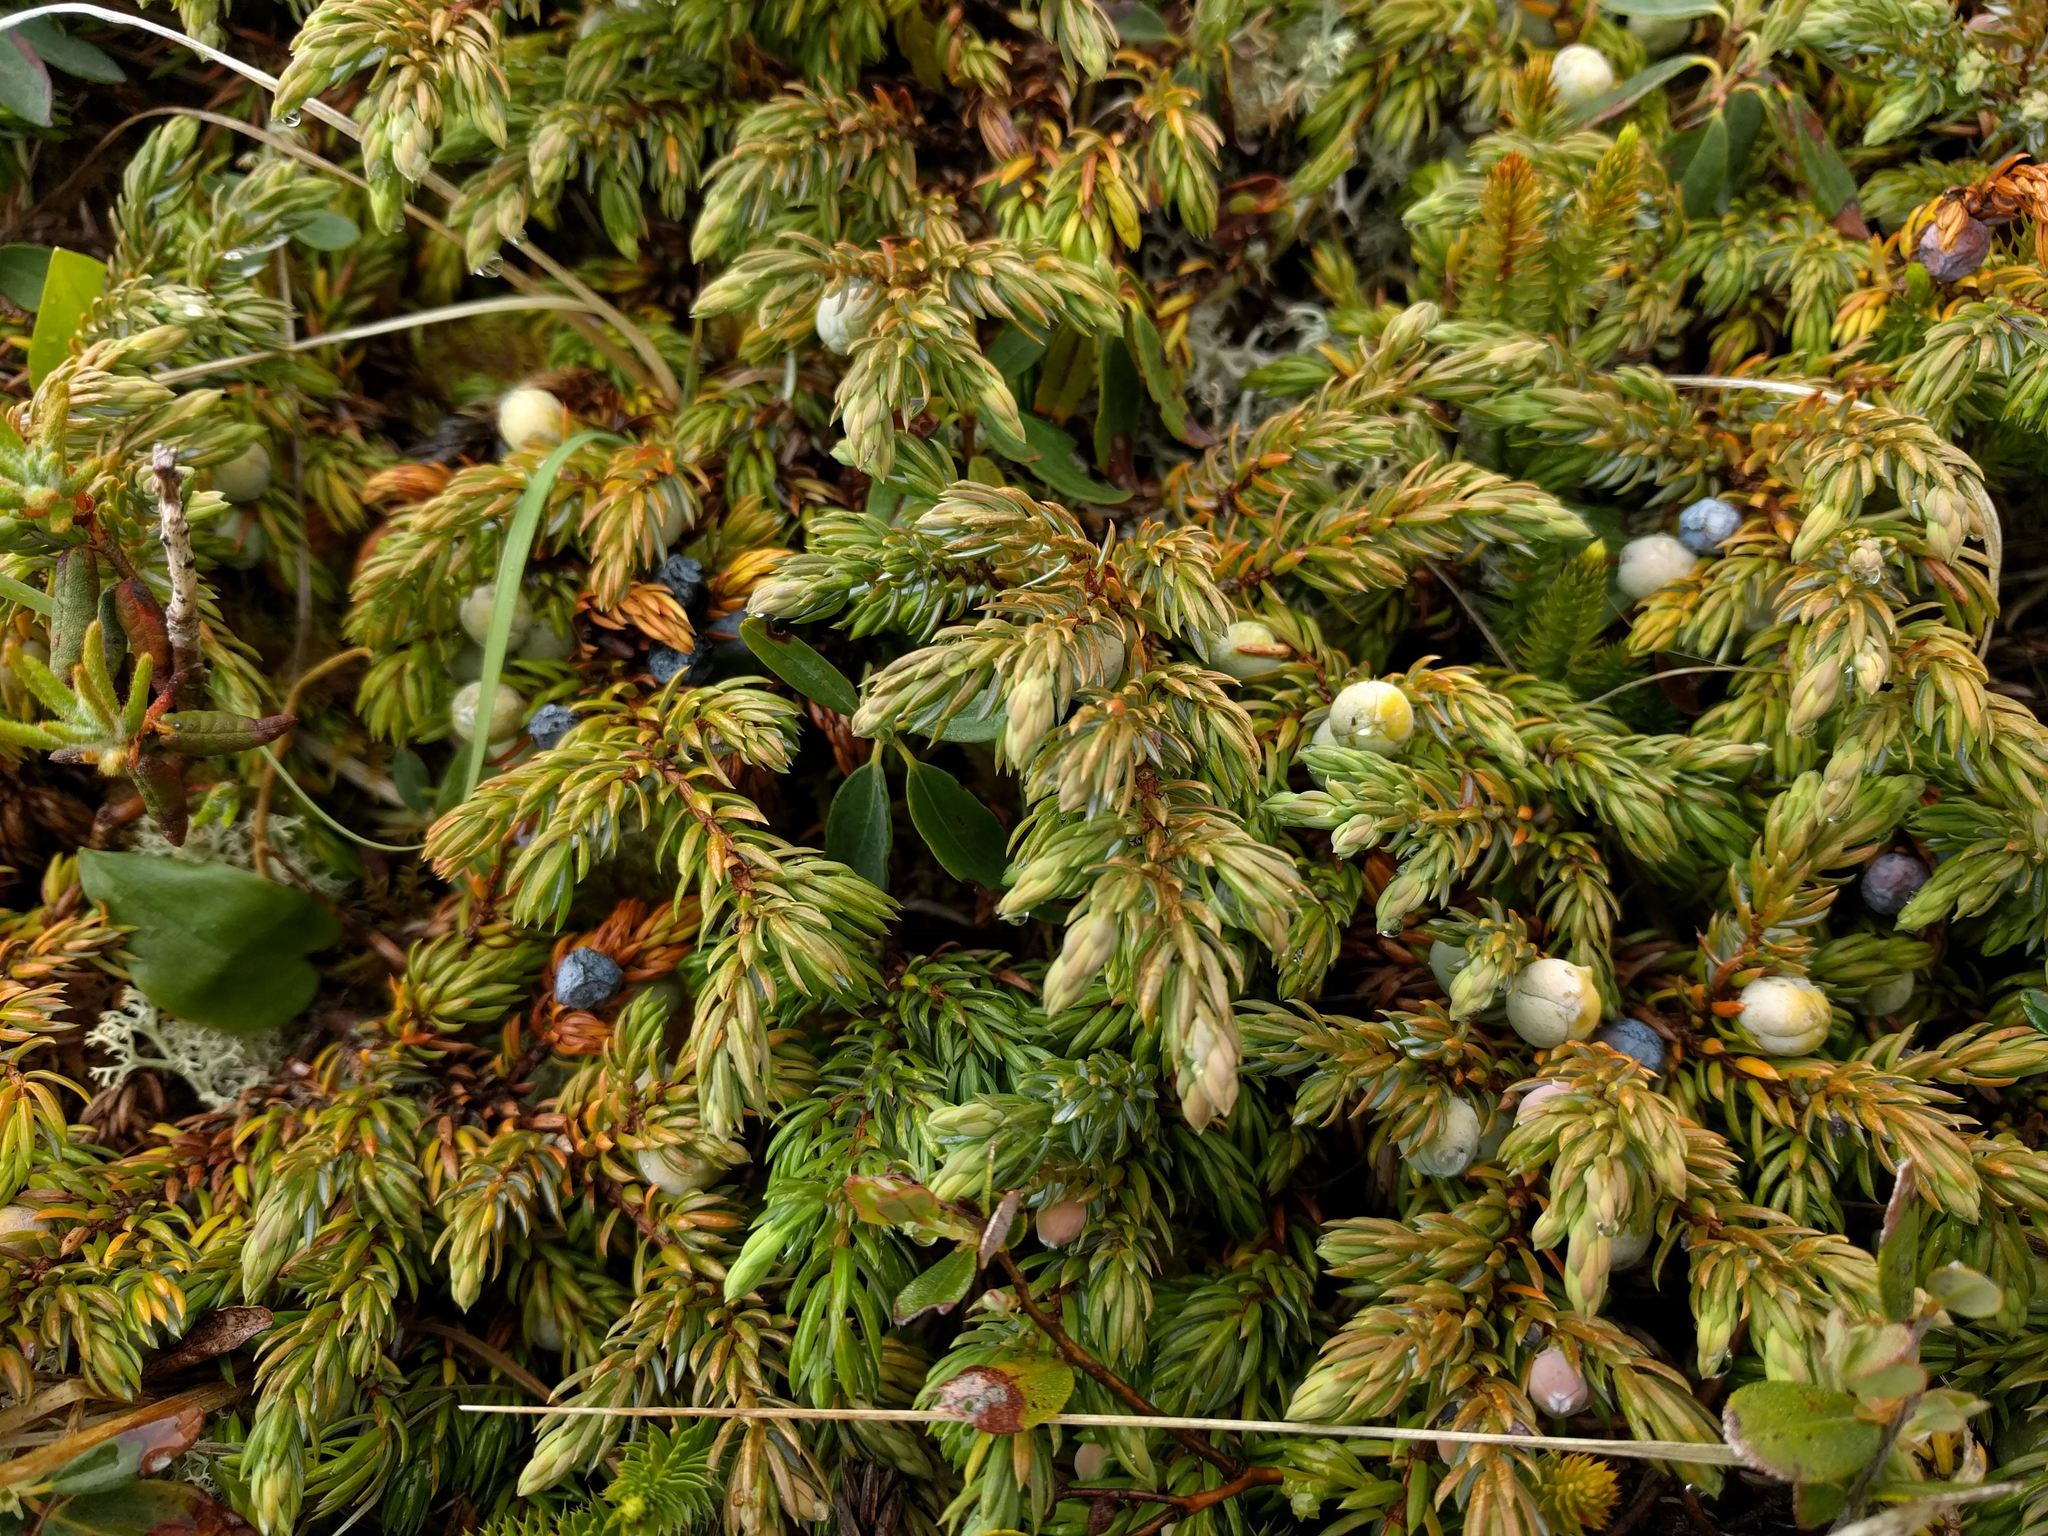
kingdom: Plantae
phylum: Tracheophyta
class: Pinopsida
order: Pinales
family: Cupressaceae
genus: Juniperus
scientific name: Juniperus communis
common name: Common juniper
